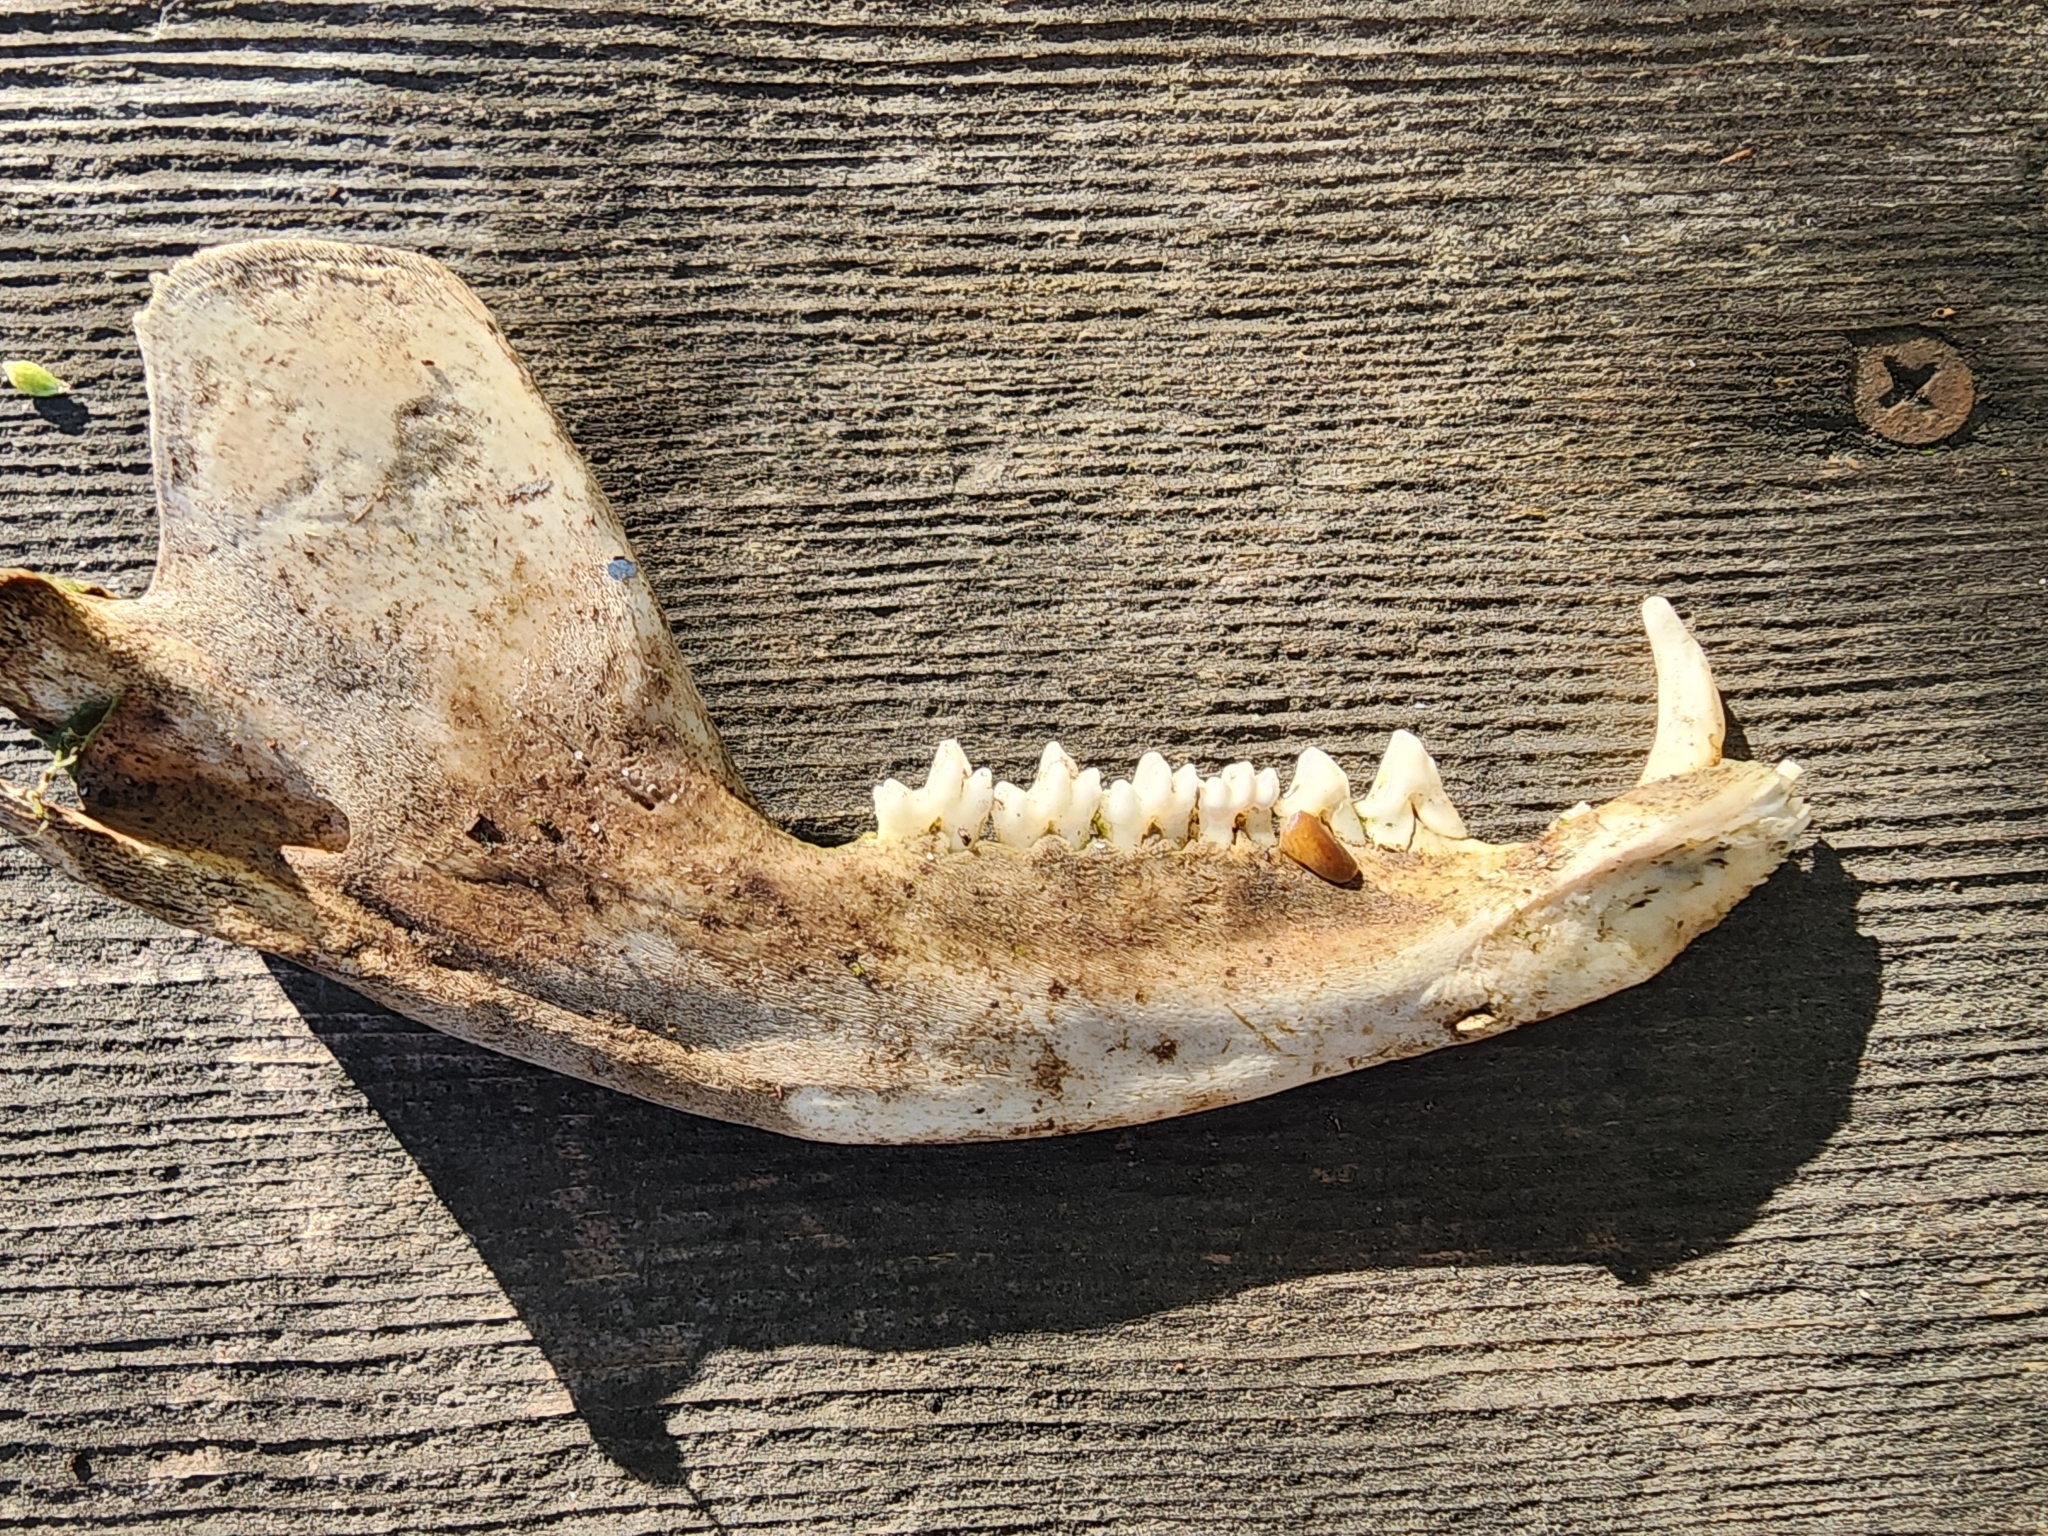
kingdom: Animalia
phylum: Chordata
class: Mammalia
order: Didelphimorphia
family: Didelphidae
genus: Didelphis
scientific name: Didelphis virginiana
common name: Virginia opossum
